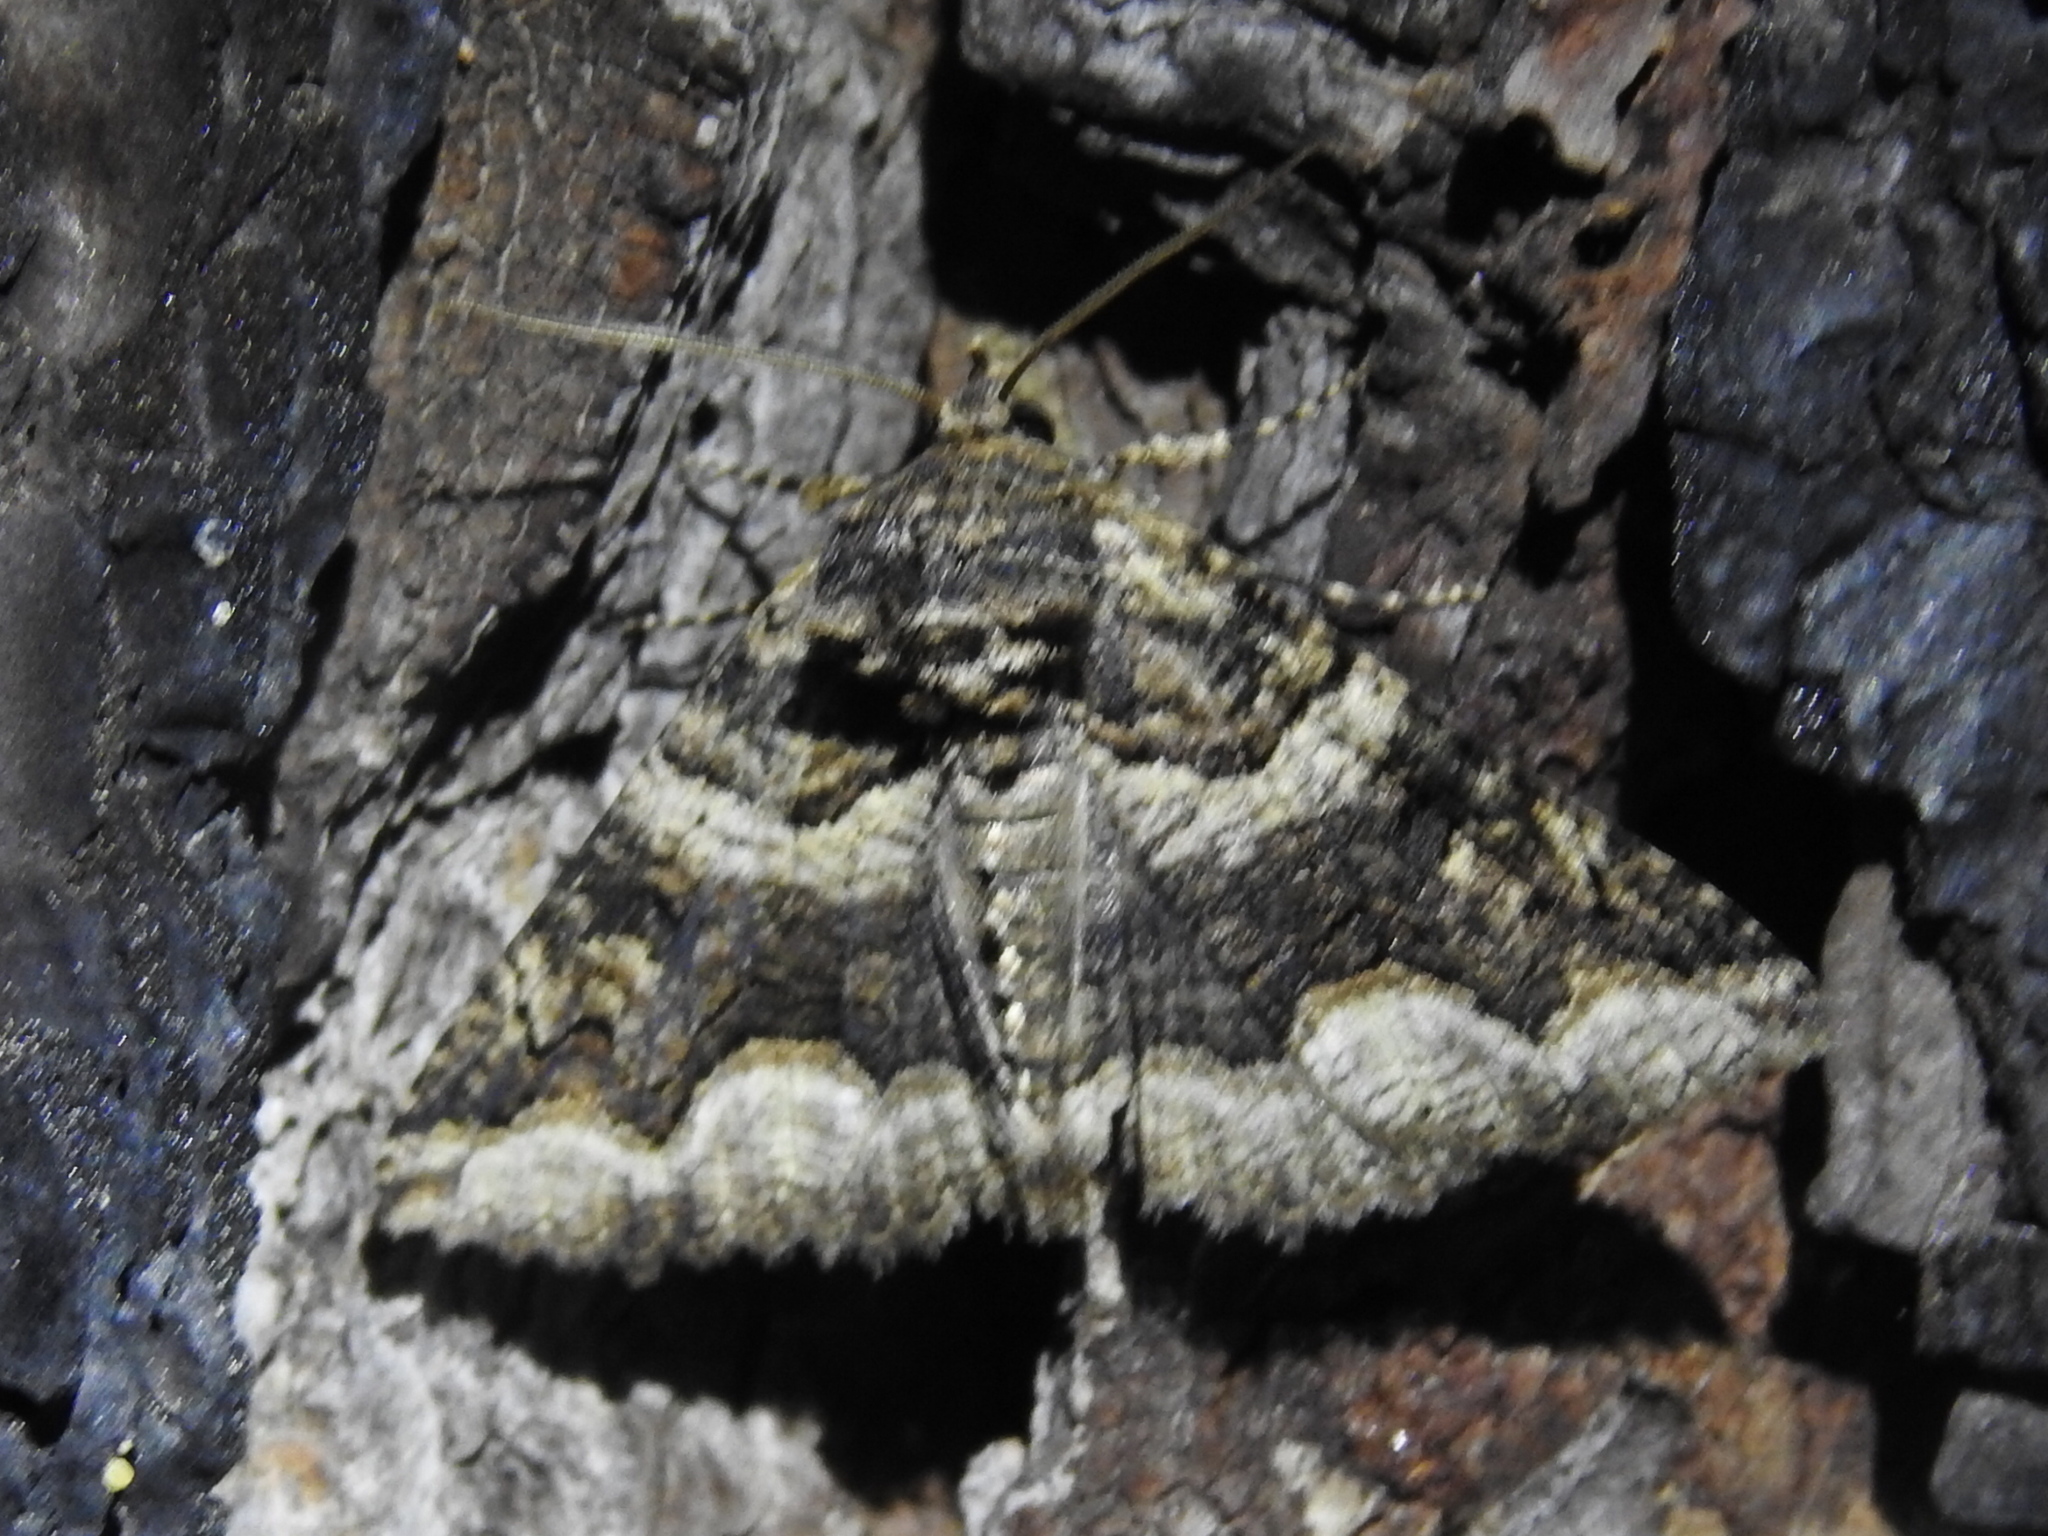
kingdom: Animalia
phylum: Arthropoda
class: Insecta
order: Lepidoptera
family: Erebidae
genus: Zale
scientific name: Zale calycanthata
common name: Double-banded zale
